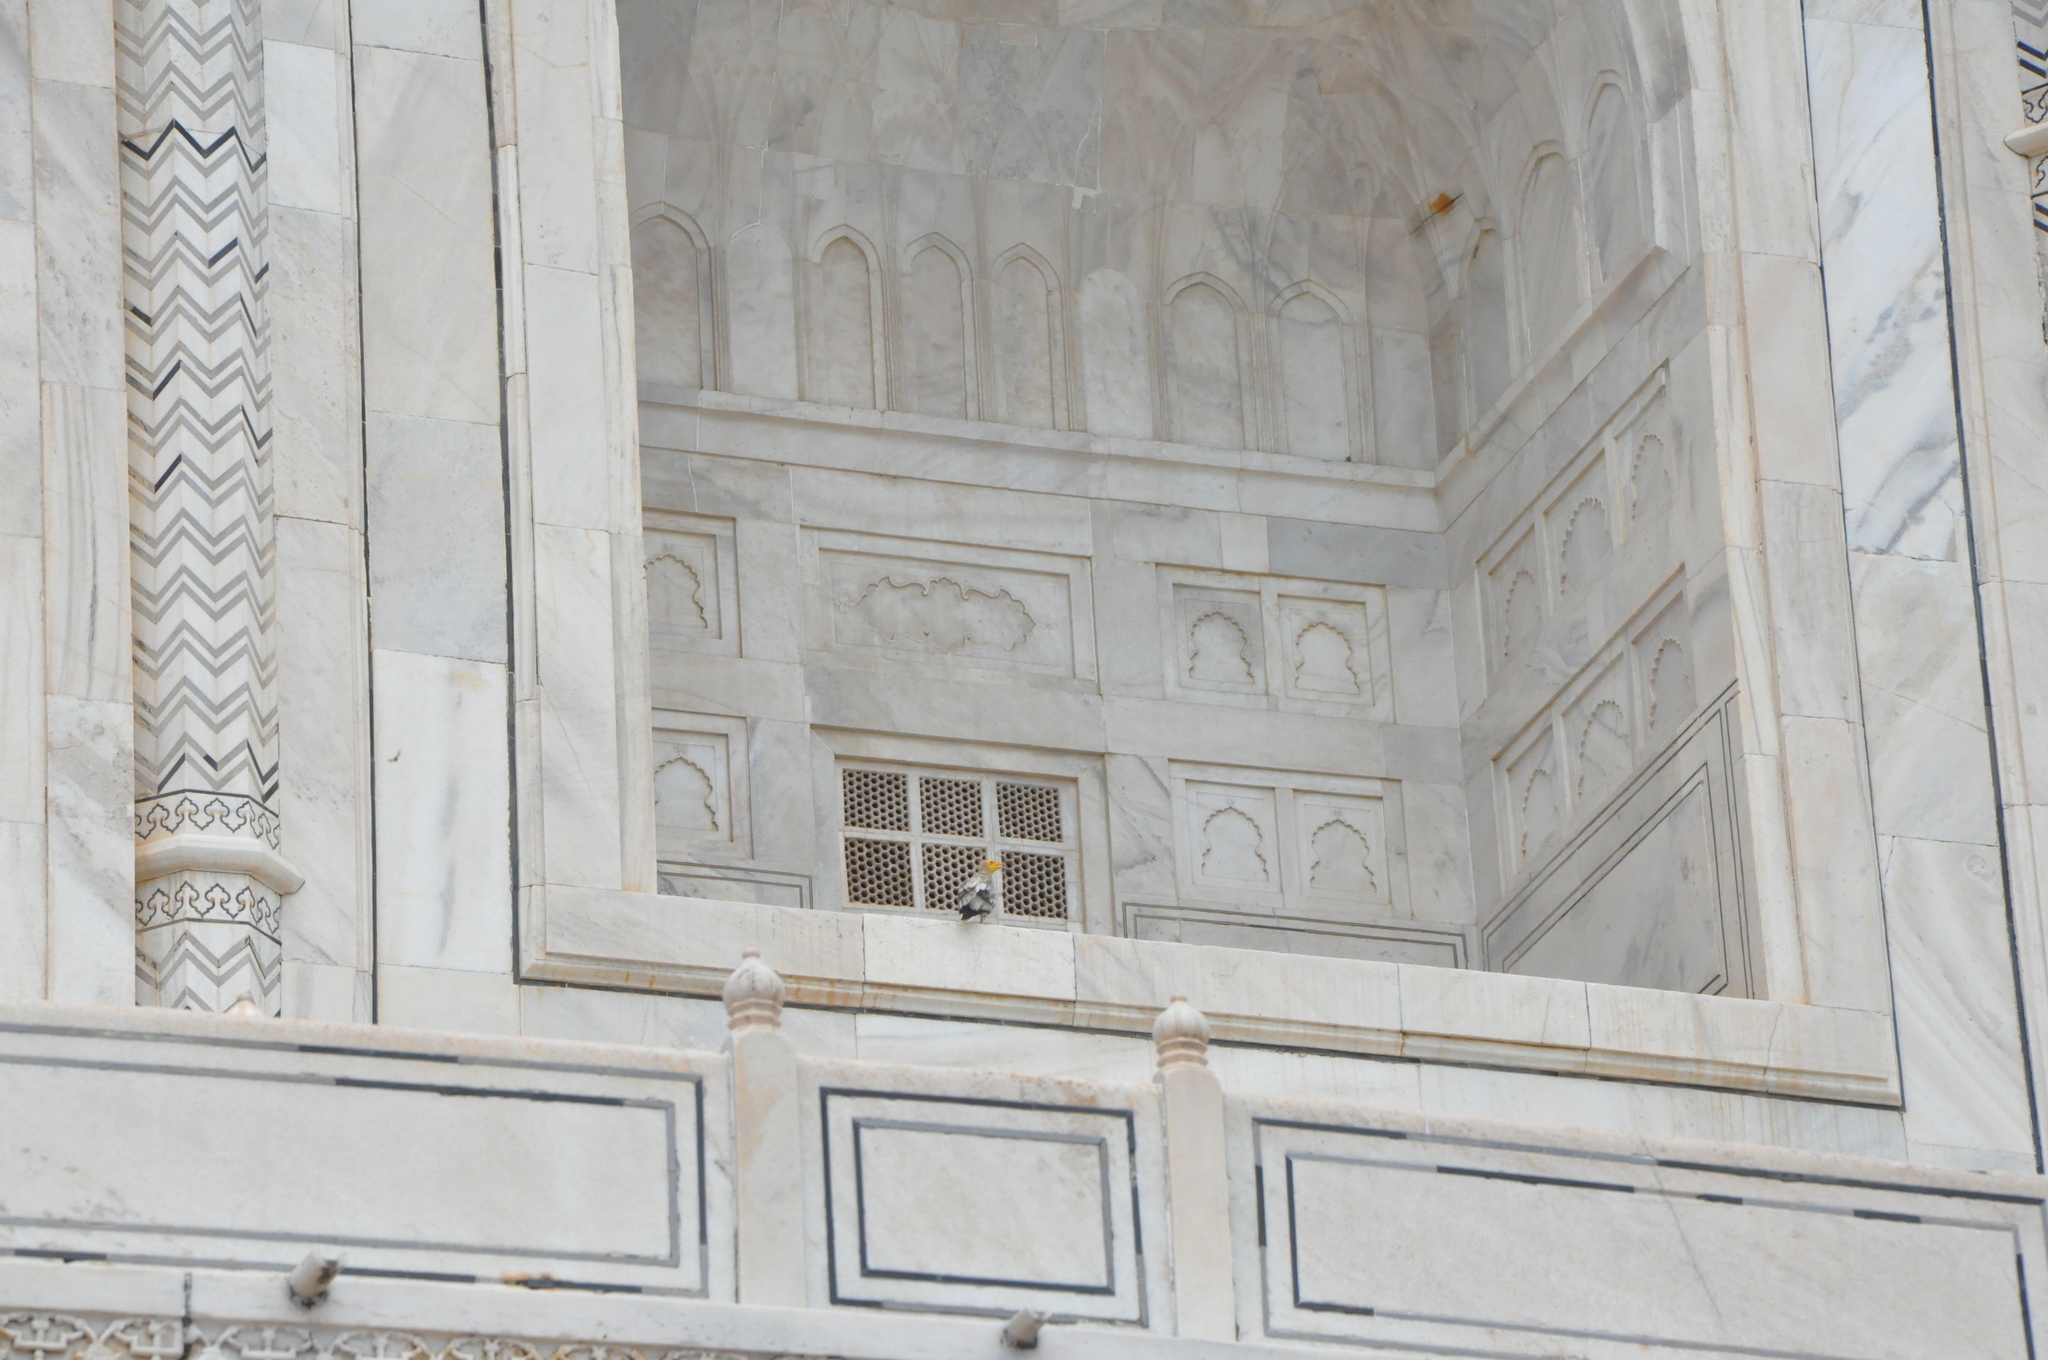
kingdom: Animalia
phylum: Chordata
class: Aves
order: Accipitriformes
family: Accipitridae
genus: Neophron
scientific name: Neophron percnopterus
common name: Egyptian vulture
